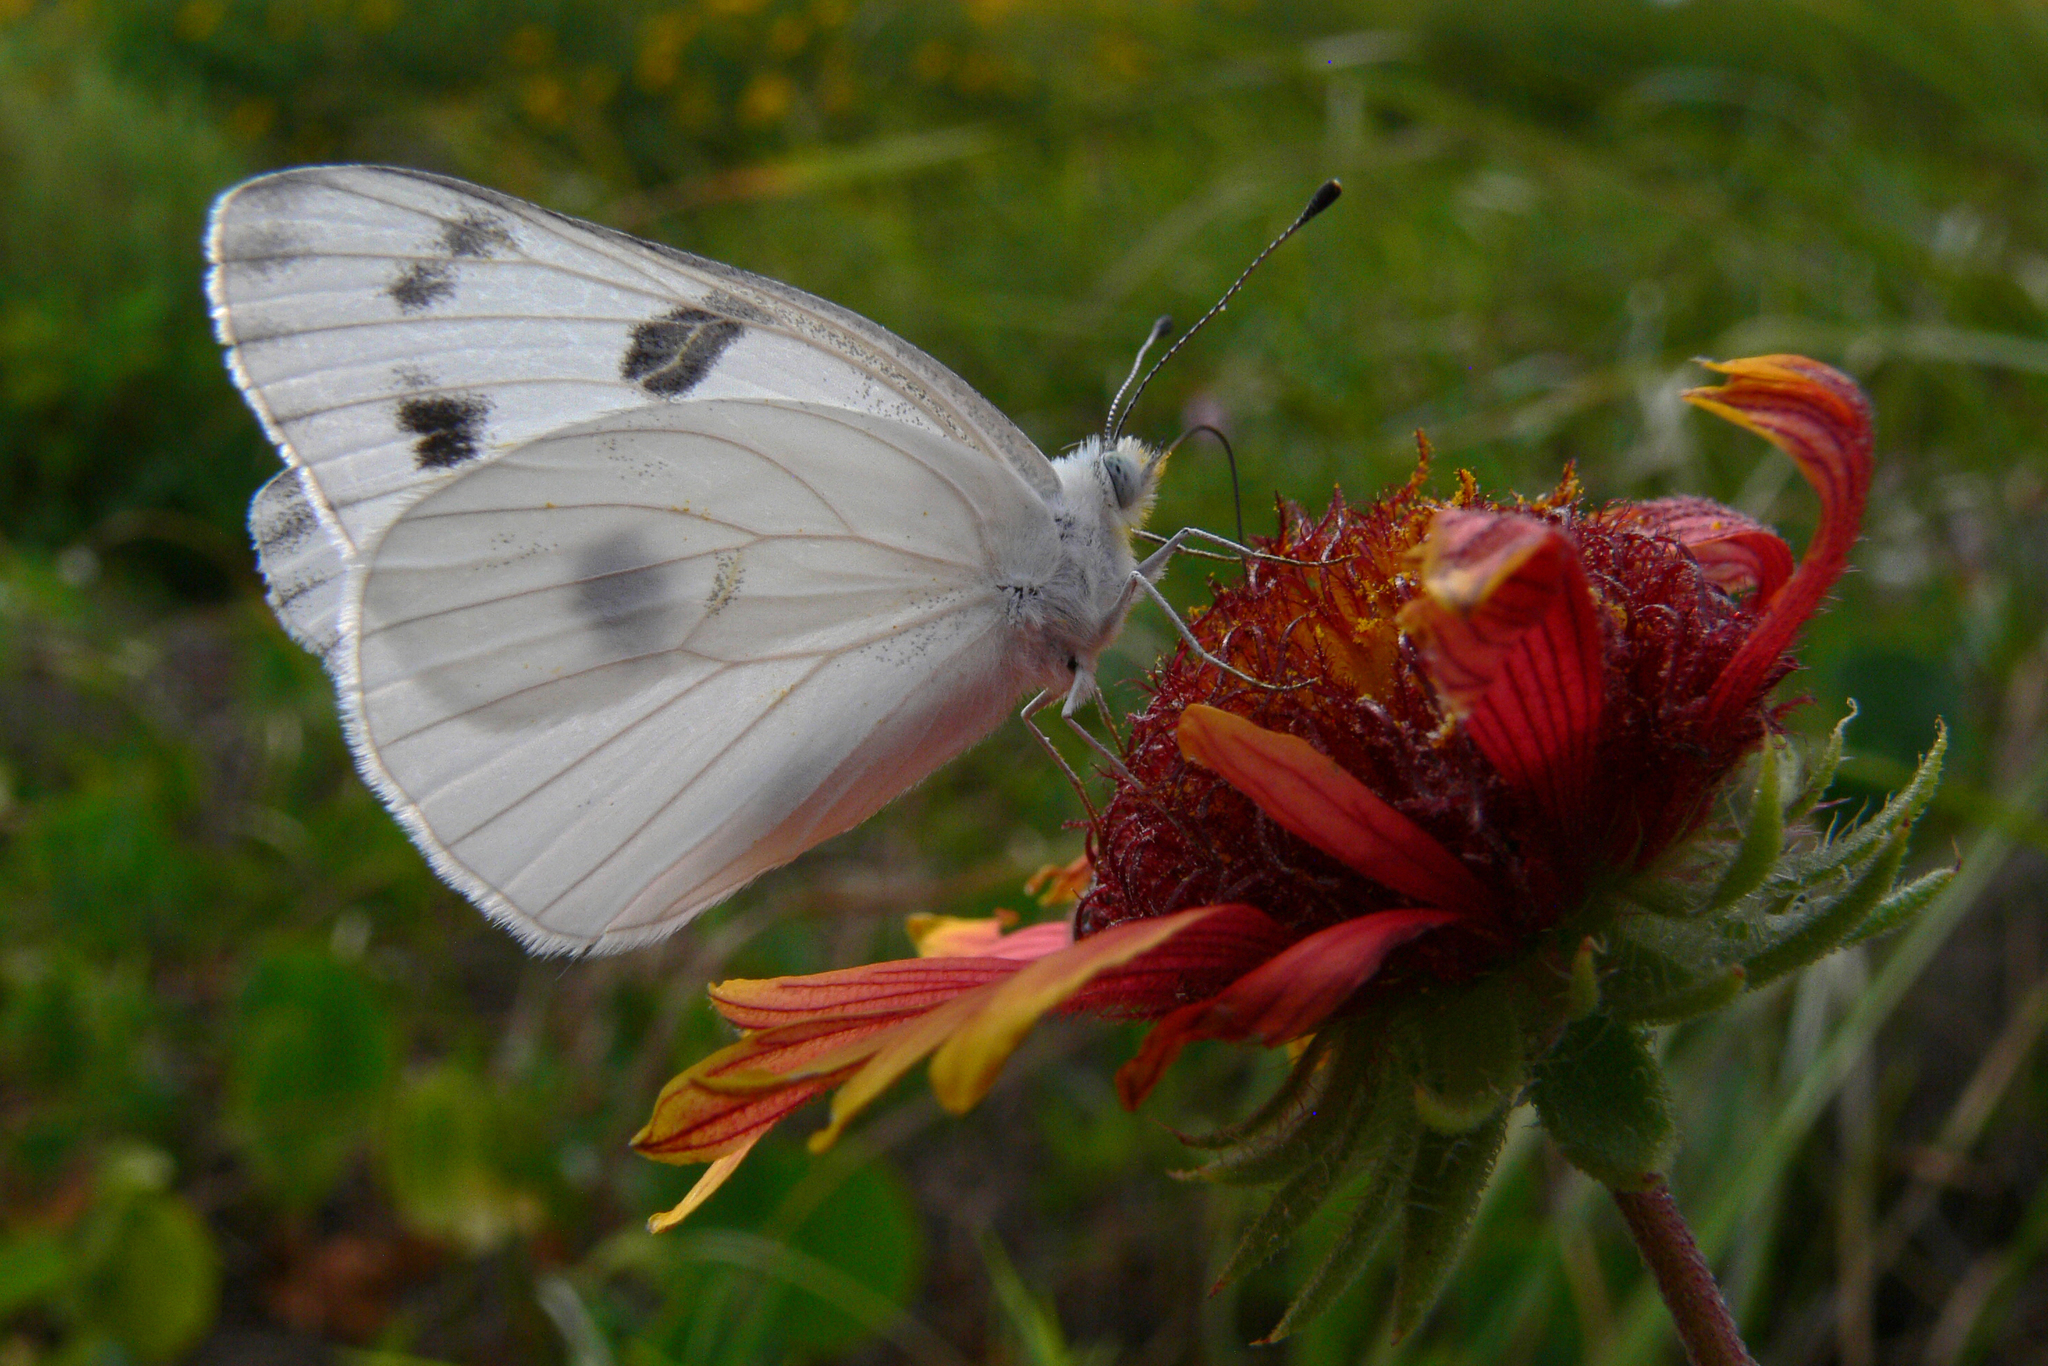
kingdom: Animalia
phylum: Arthropoda
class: Insecta
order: Lepidoptera
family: Pieridae
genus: Pontia
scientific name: Pontia protodice
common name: Checkered white
